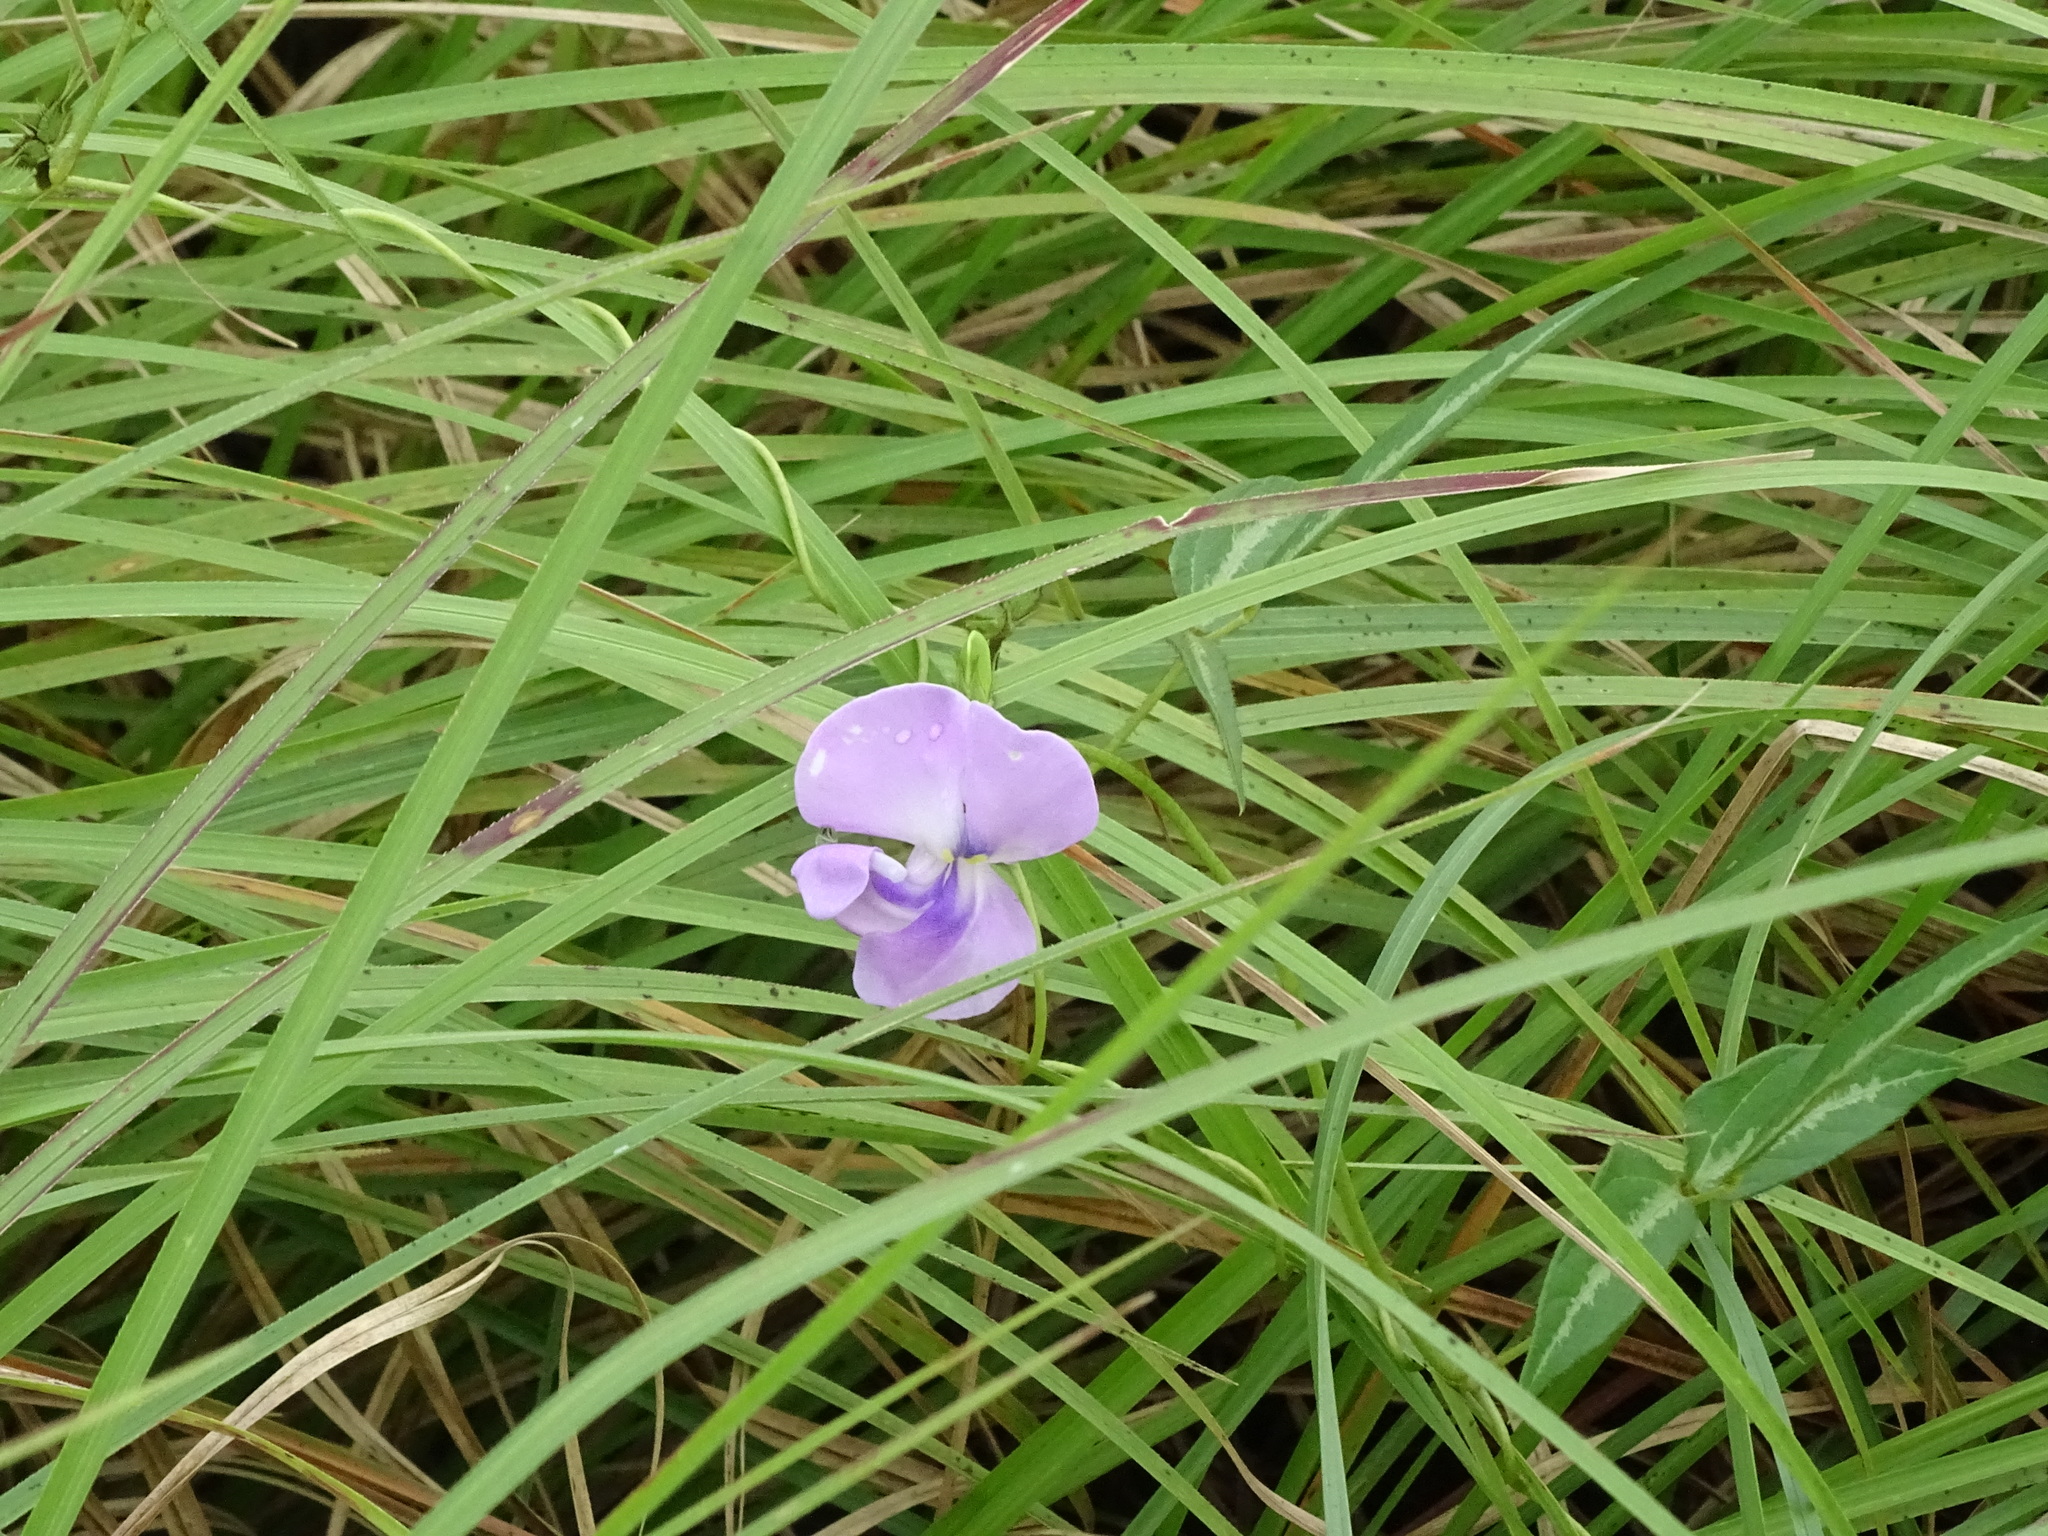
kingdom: Plantae
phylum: Tracheophyta
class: Magnoliopsida
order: Fabales
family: Fabaceae
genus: Vigna
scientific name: Vigna vexillata
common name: Zombi pea
